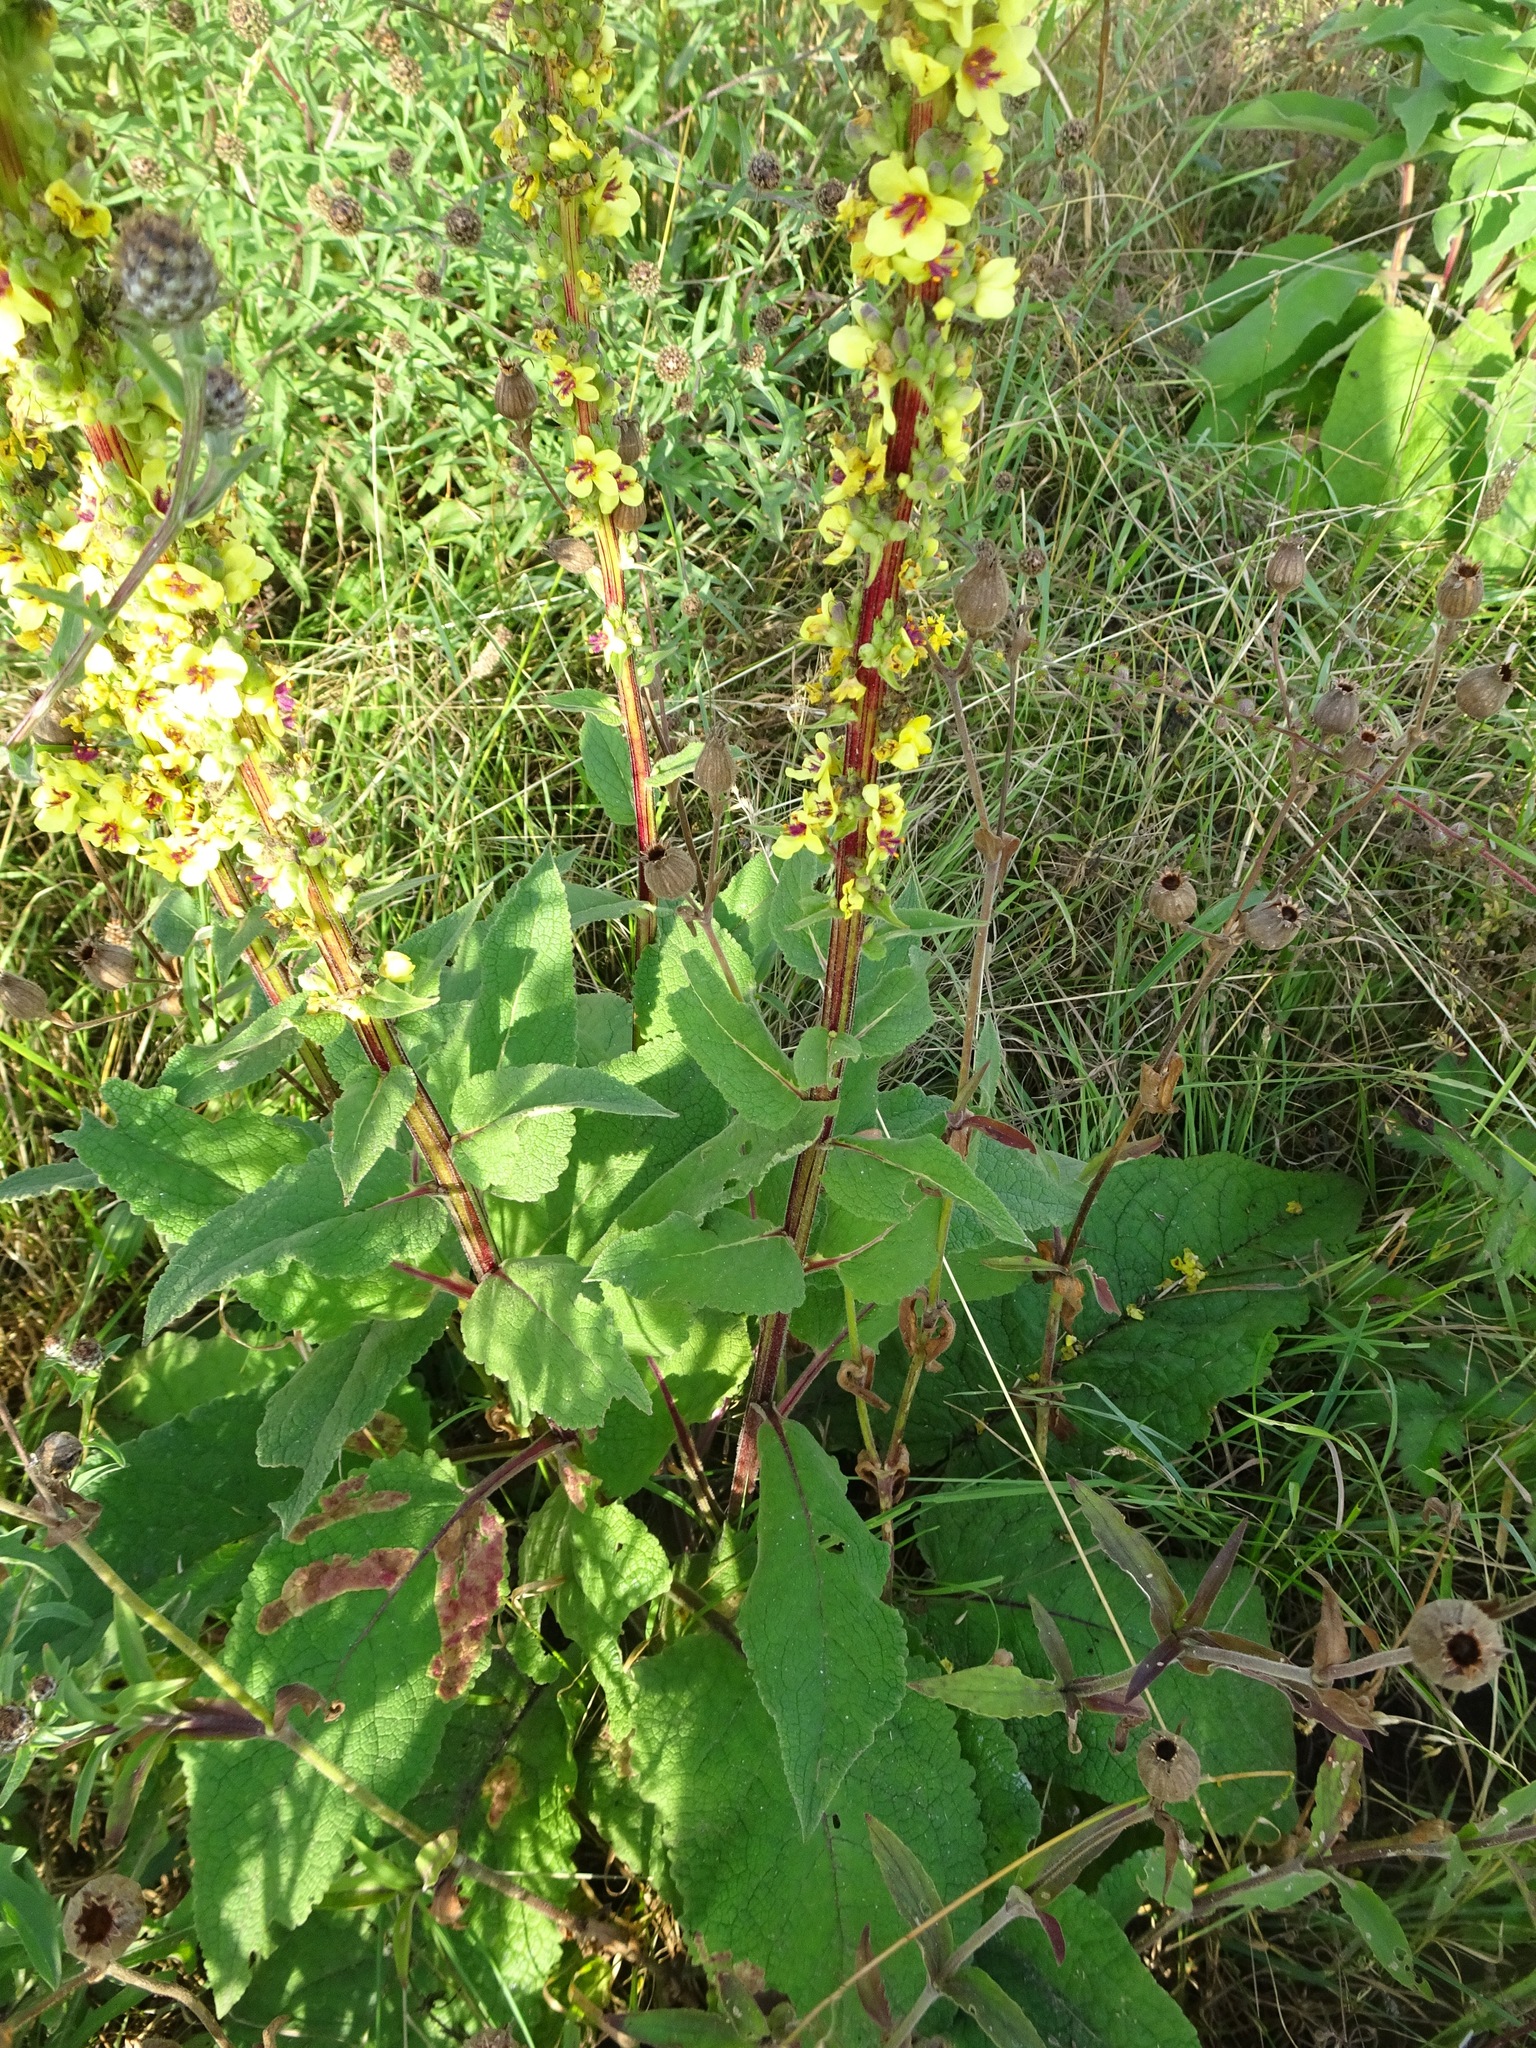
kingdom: Plantae
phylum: Tracheophyta
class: Magnoliopsida
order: Lamiales
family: Scrophulariaceae
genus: Verbascum
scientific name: Verbascum nigrum
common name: Dark mullein
